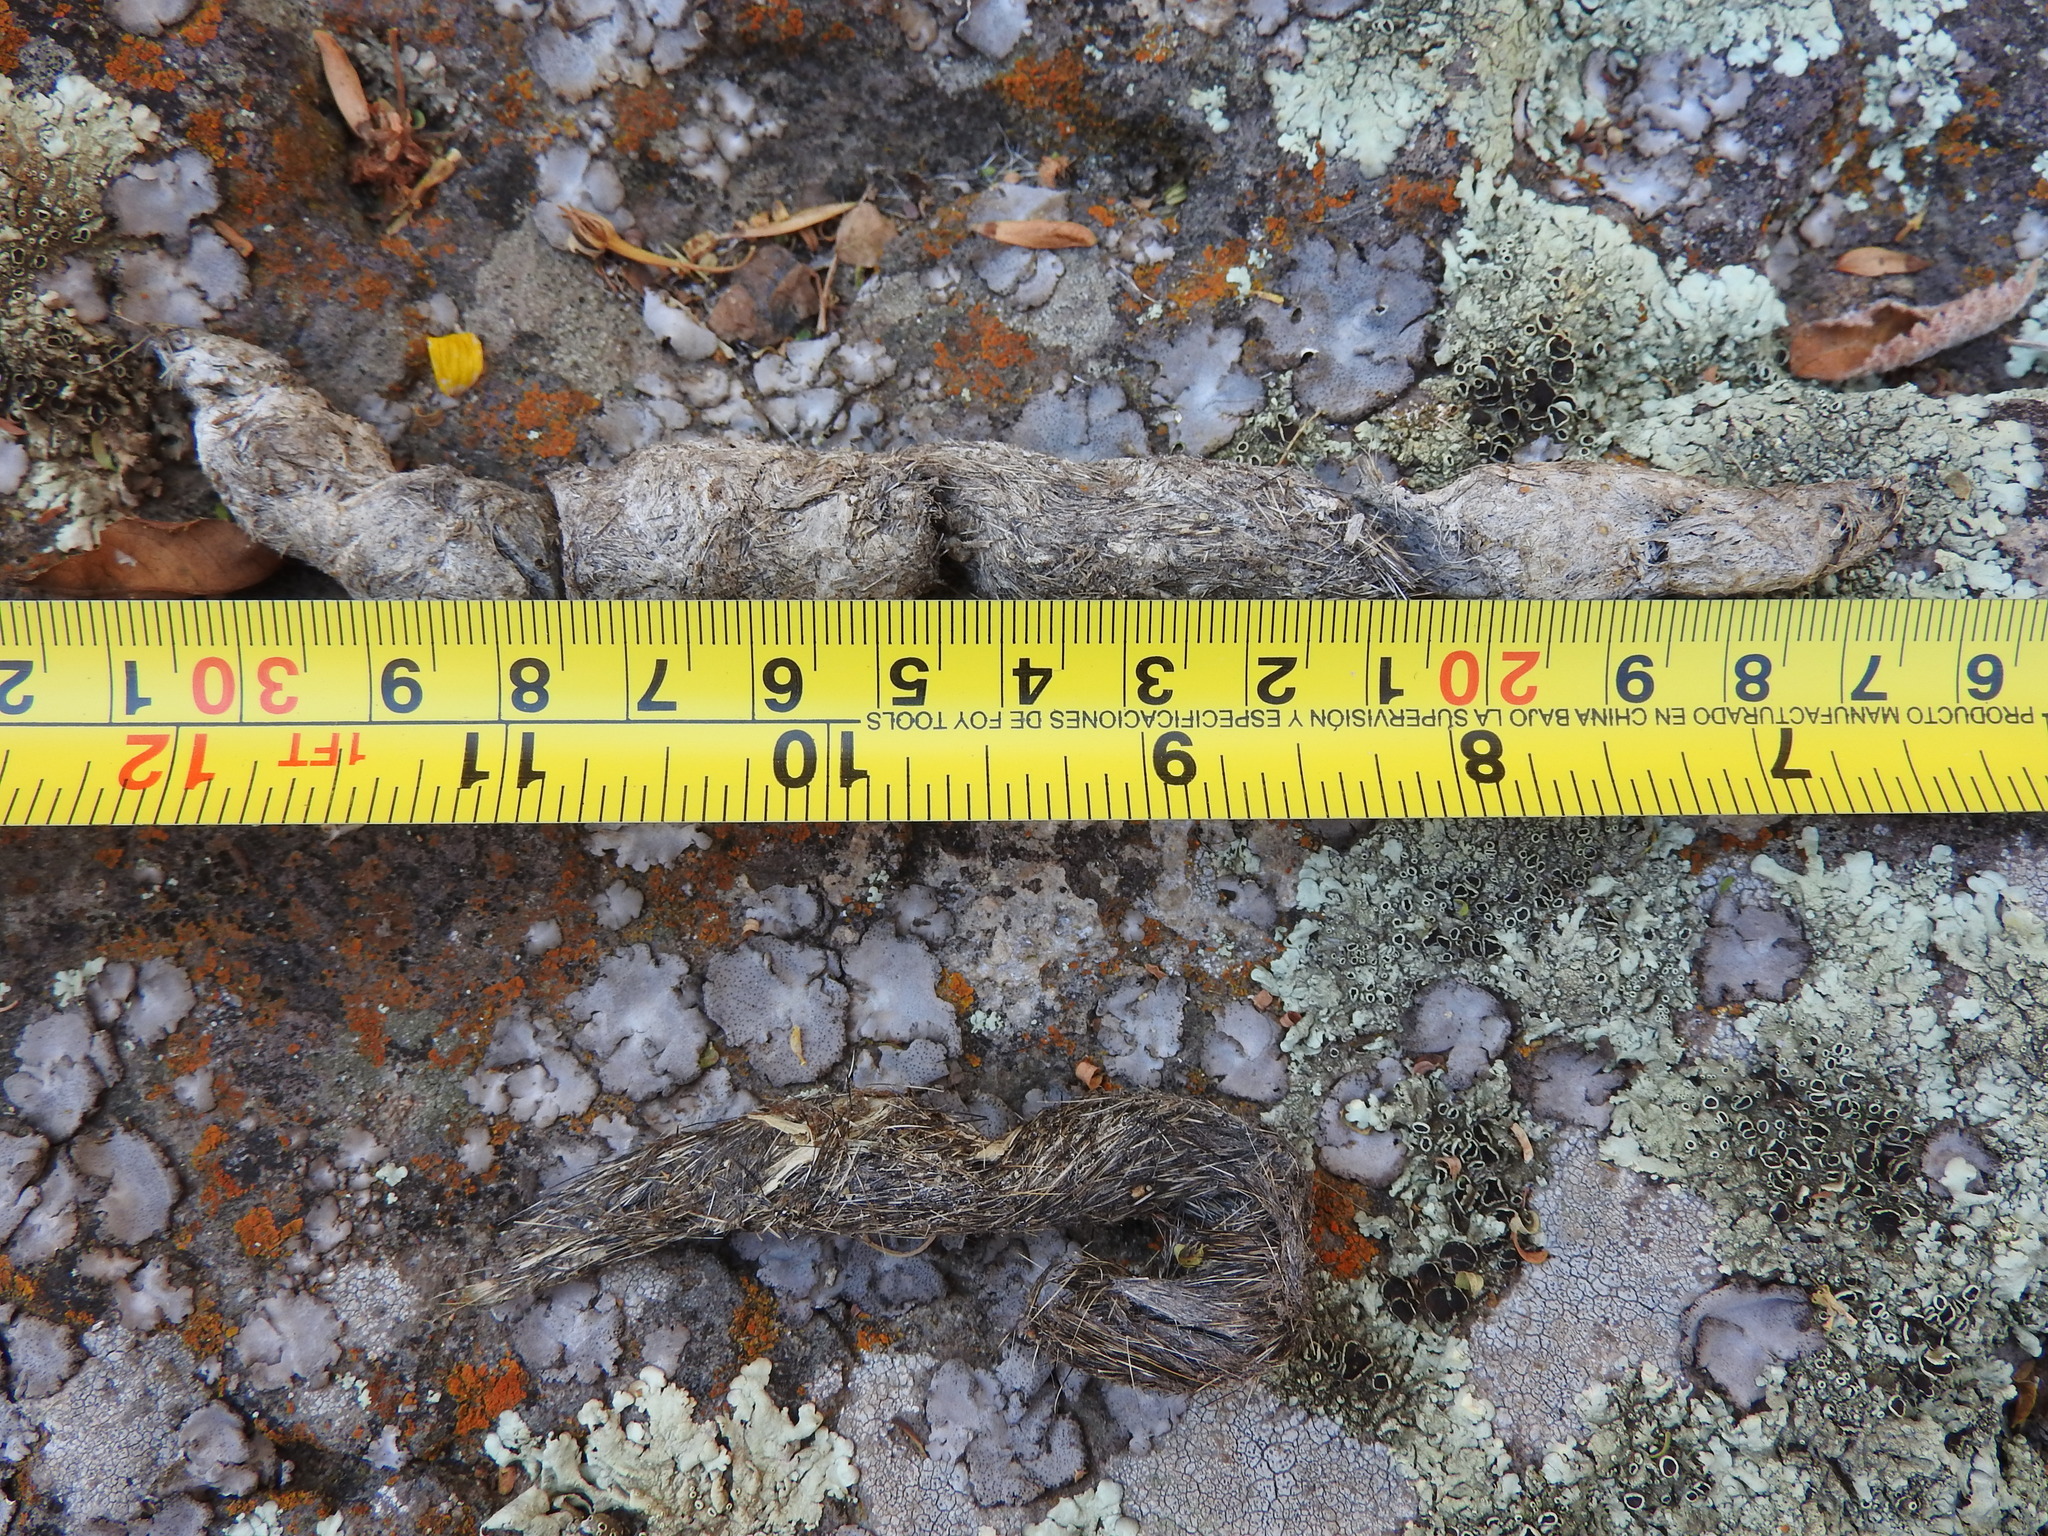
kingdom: Animalia
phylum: Chordata
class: Mammalia
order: Carnivora
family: Felidae
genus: Lynx
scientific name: Lynx rufus
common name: Bobcat
